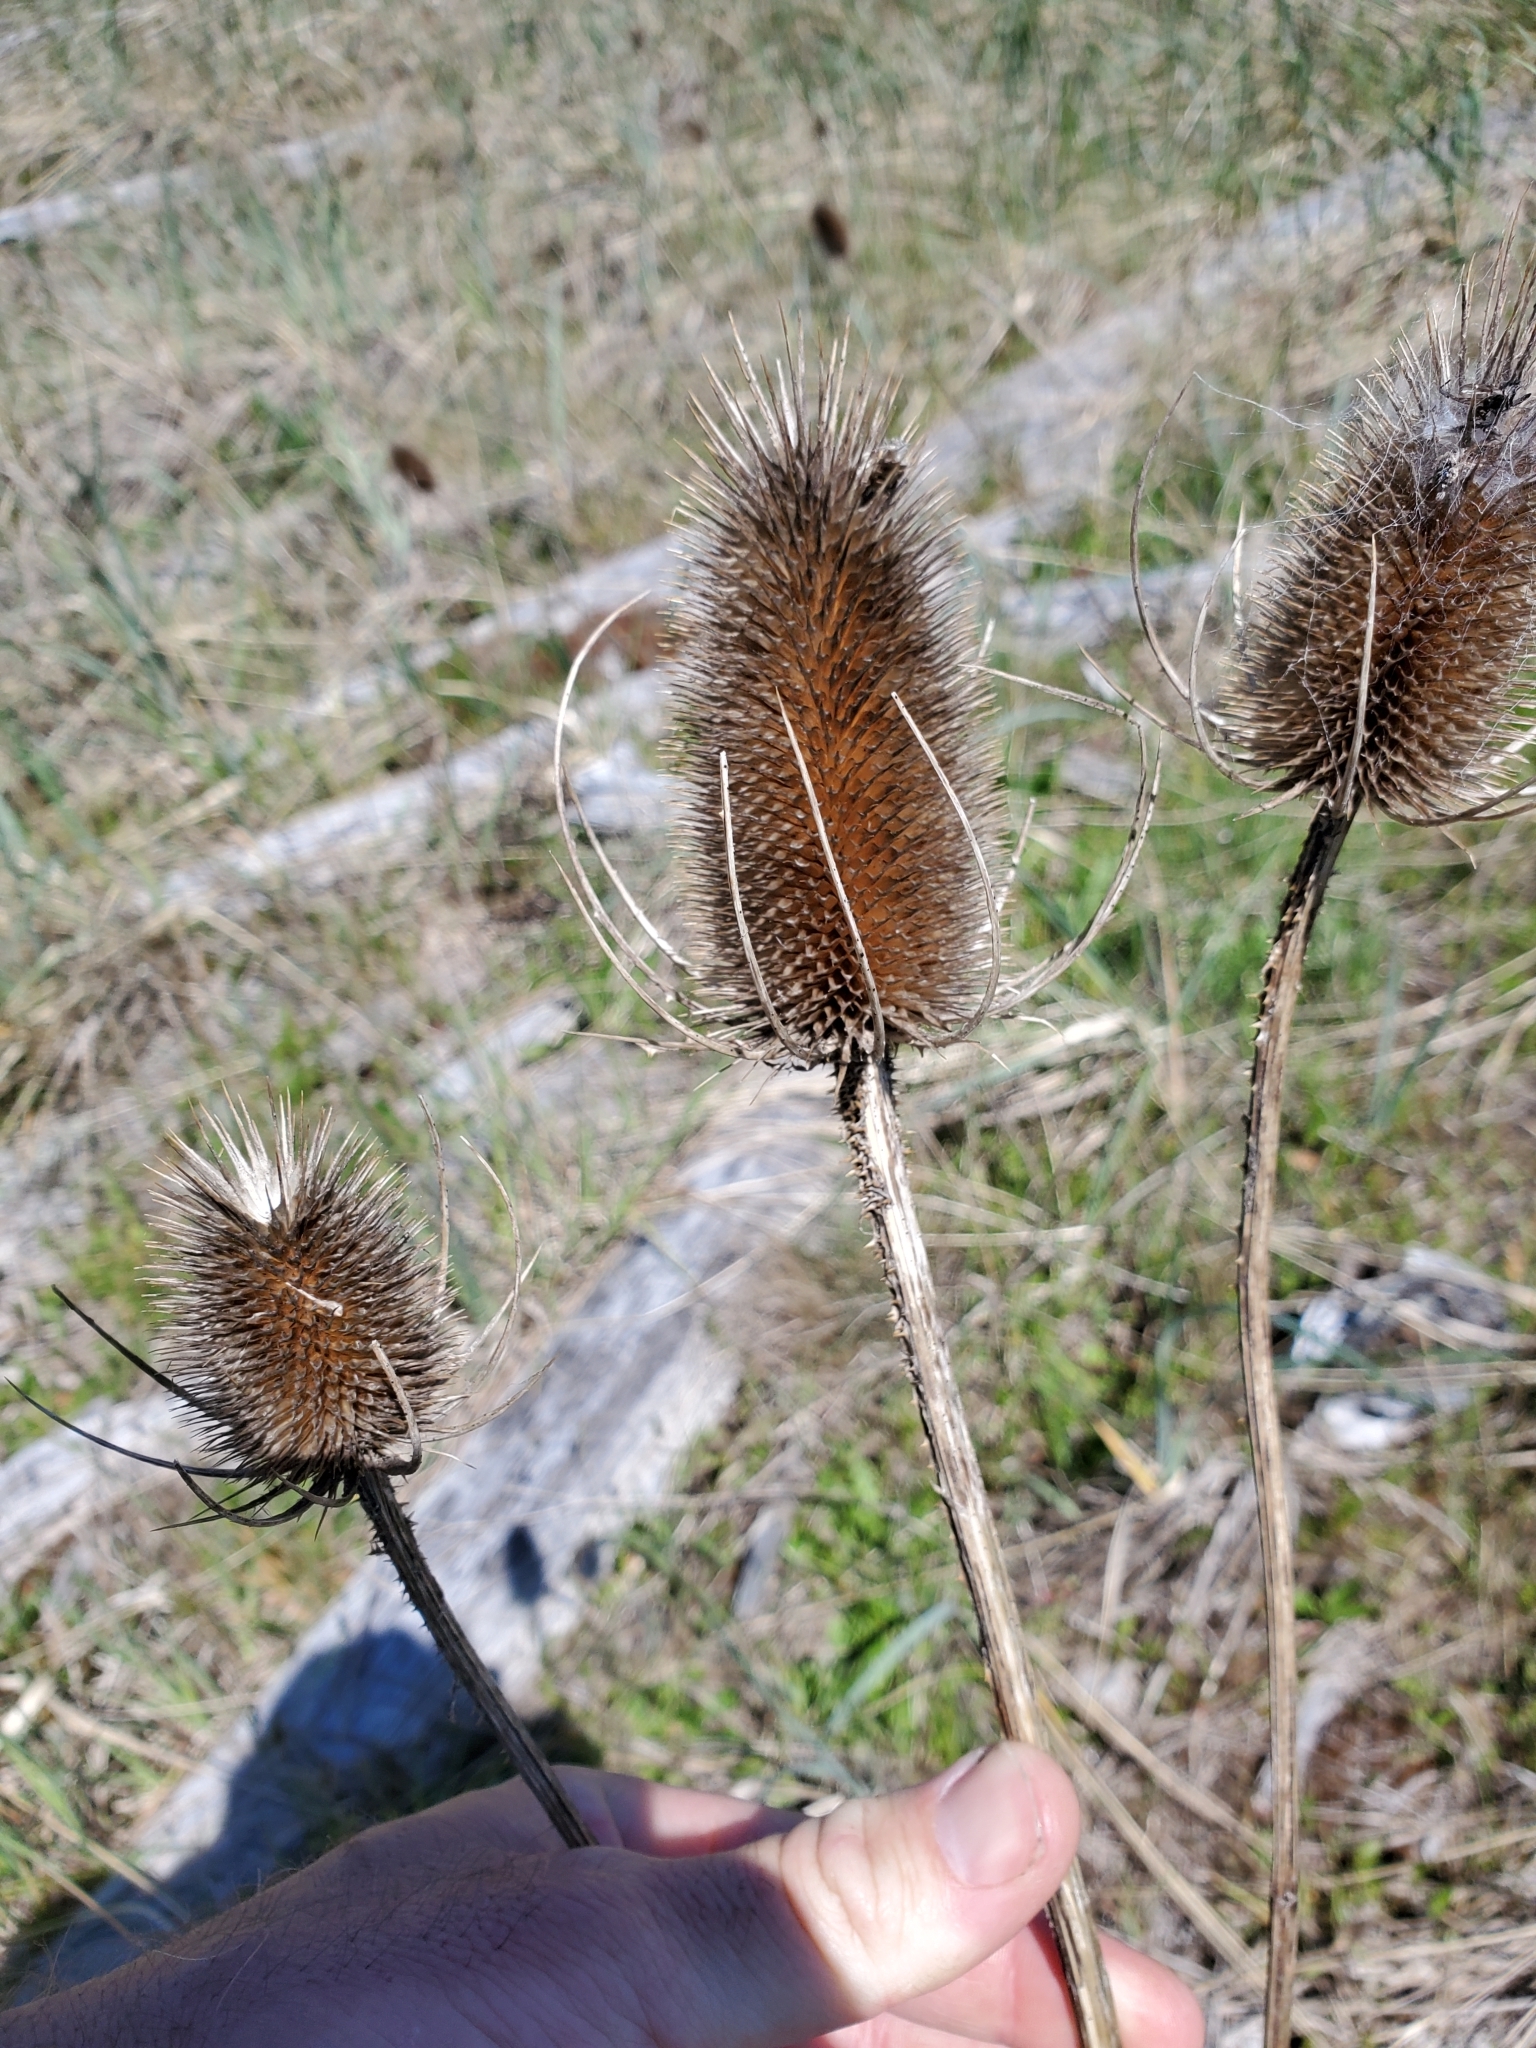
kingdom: Plantae
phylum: Tracheophyta
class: Magnoliopsida
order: Dipsacales
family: Caprifoliaceae
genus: Dipsacus
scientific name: Dipsacus fullonum
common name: Teasel
